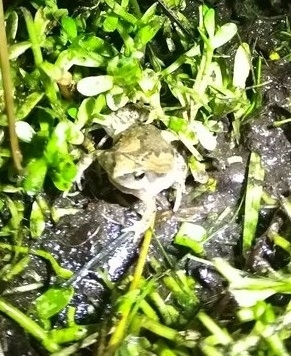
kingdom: Animalia
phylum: Chordata
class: Amphibia
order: Anura
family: Microhylidae
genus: Microhyla
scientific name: Microhyla fissipes
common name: Ornate narrow-mouthed frog
